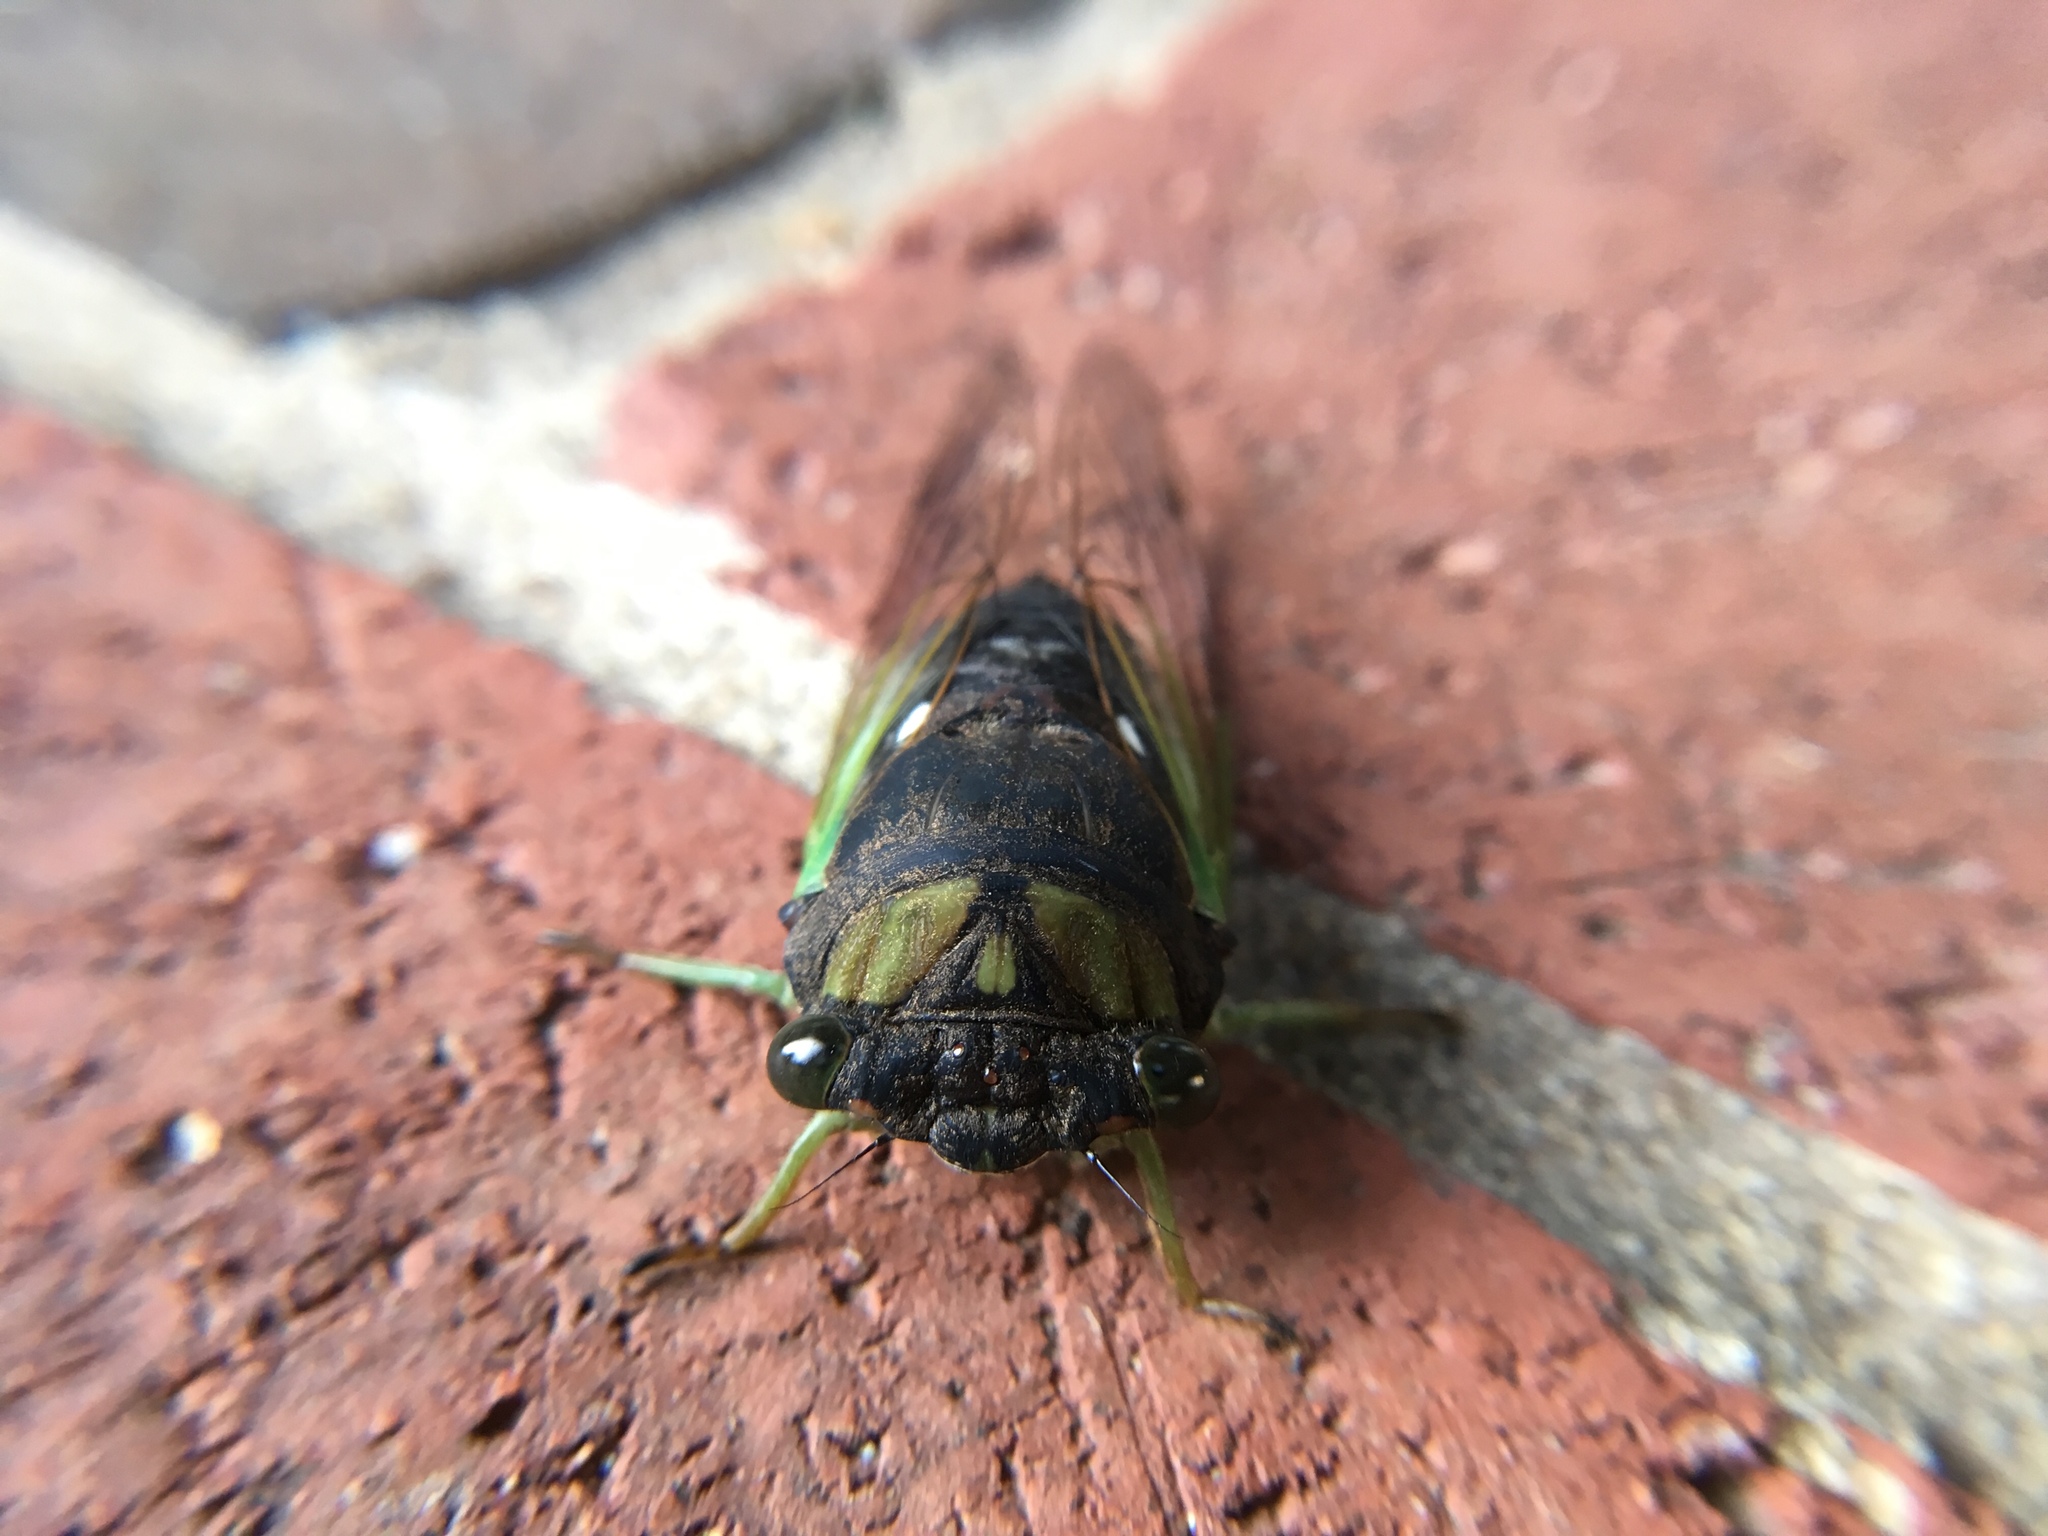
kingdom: Animalia
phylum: Arthropoda
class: Insecta
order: Hemiptera
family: Cicadidae
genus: Neotibicen
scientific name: Neotibicen tibicen
